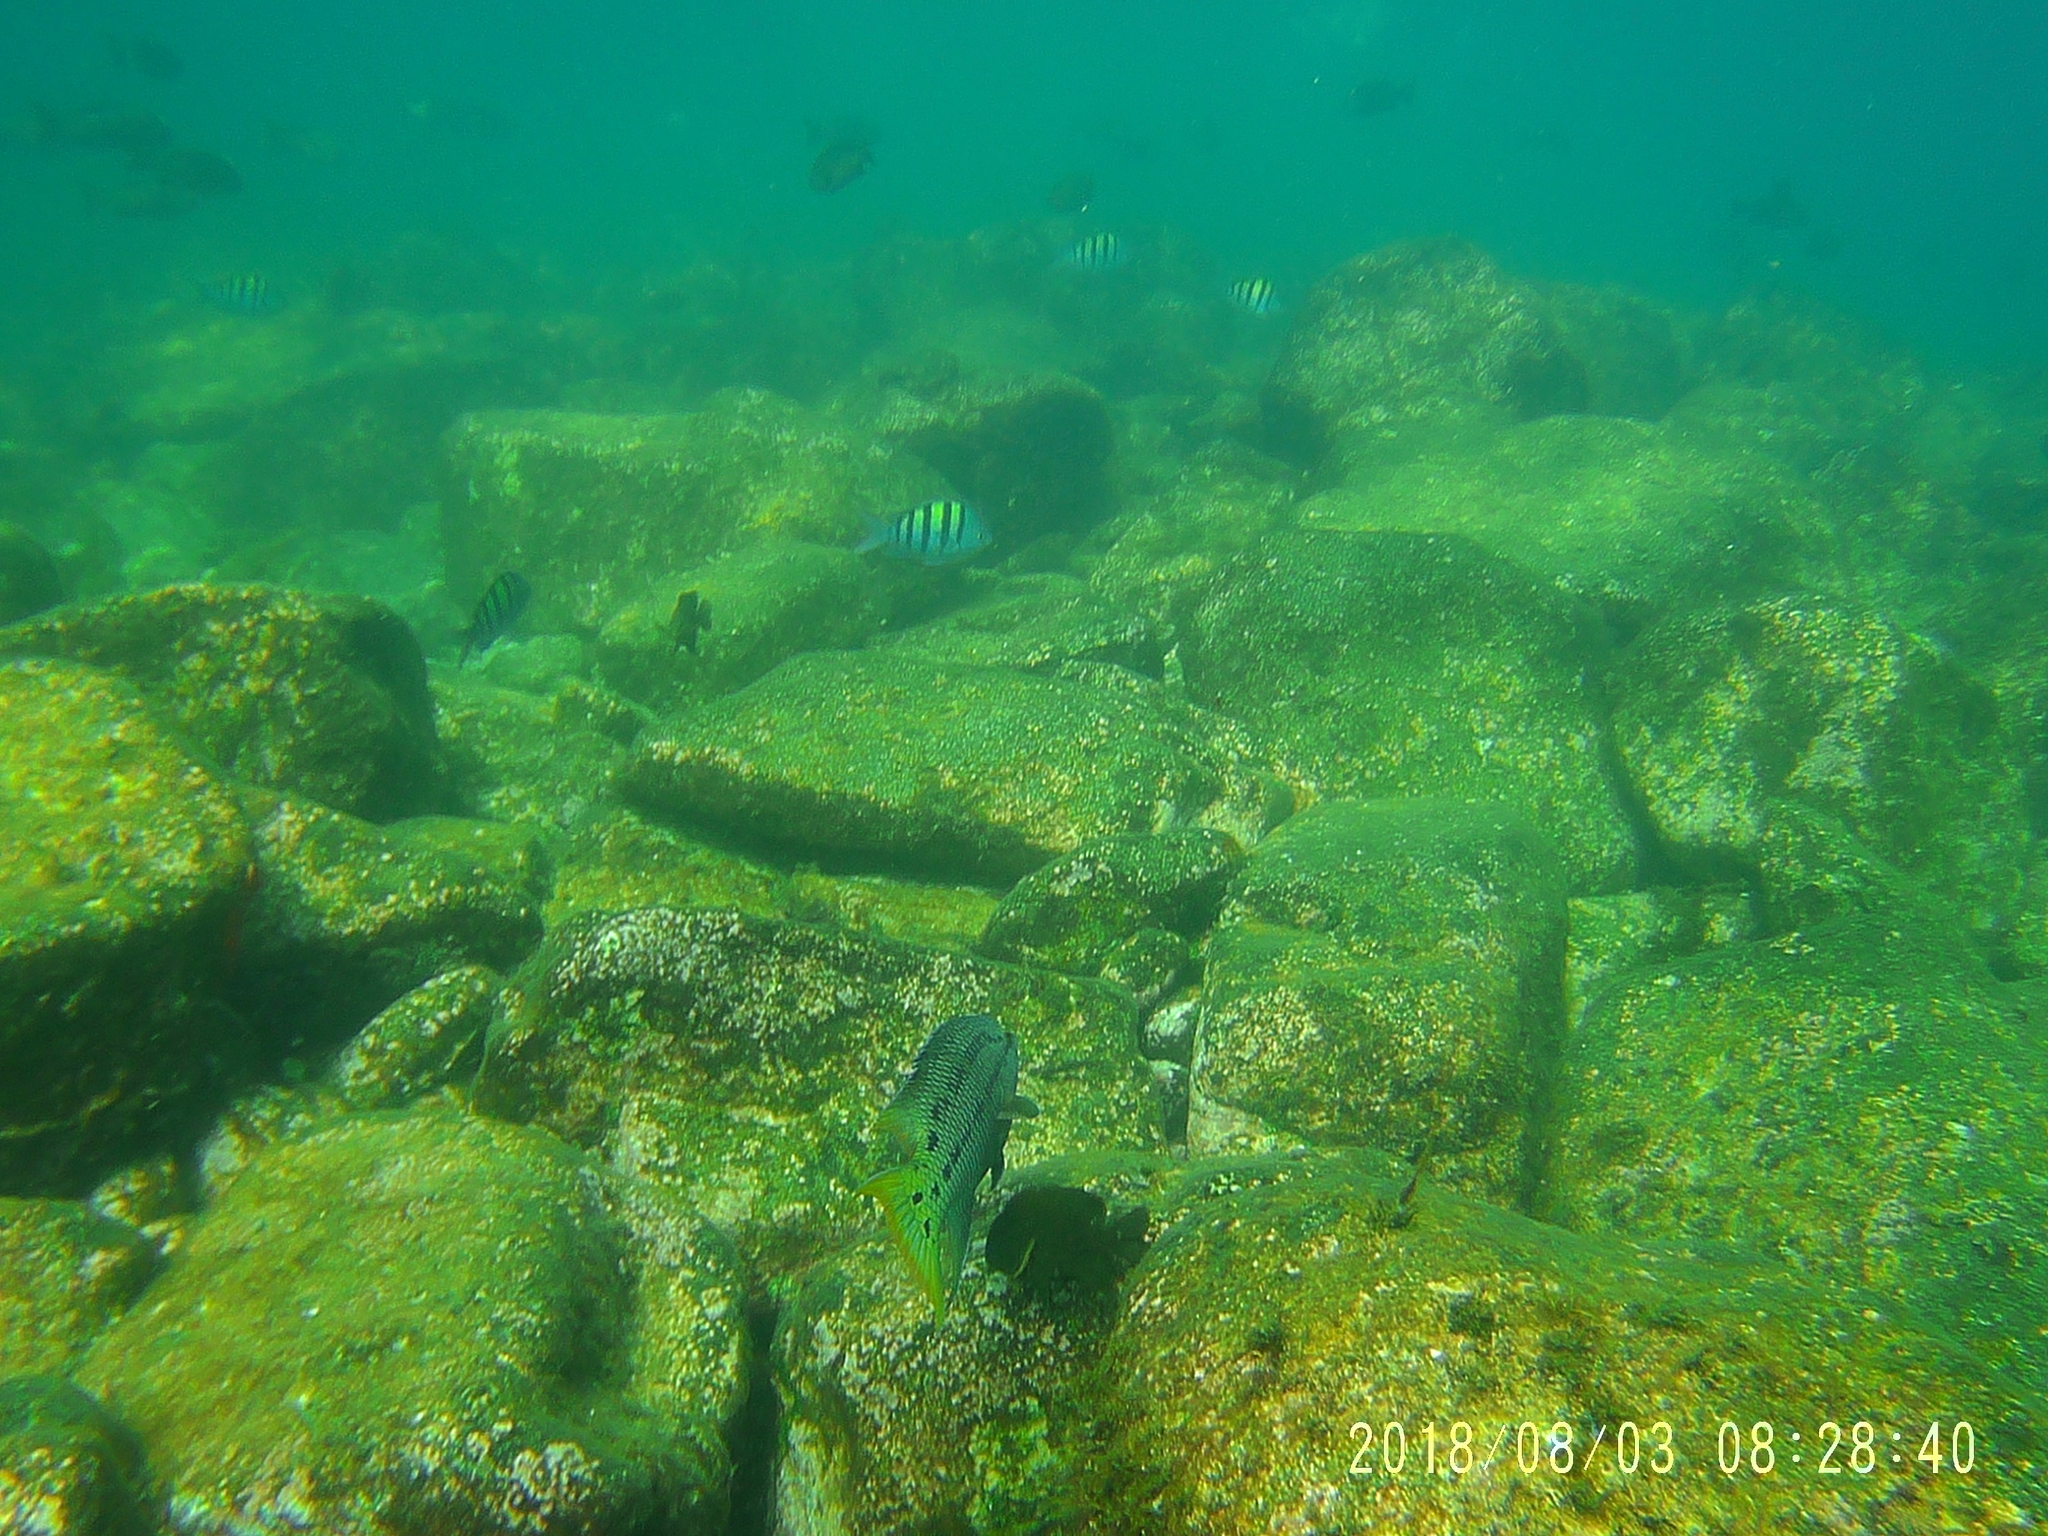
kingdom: Animalia
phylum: Chordata
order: Perciformes
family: Labridae
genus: Bodianus
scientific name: Bodianus diplotaenia
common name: Mexican hogfish
